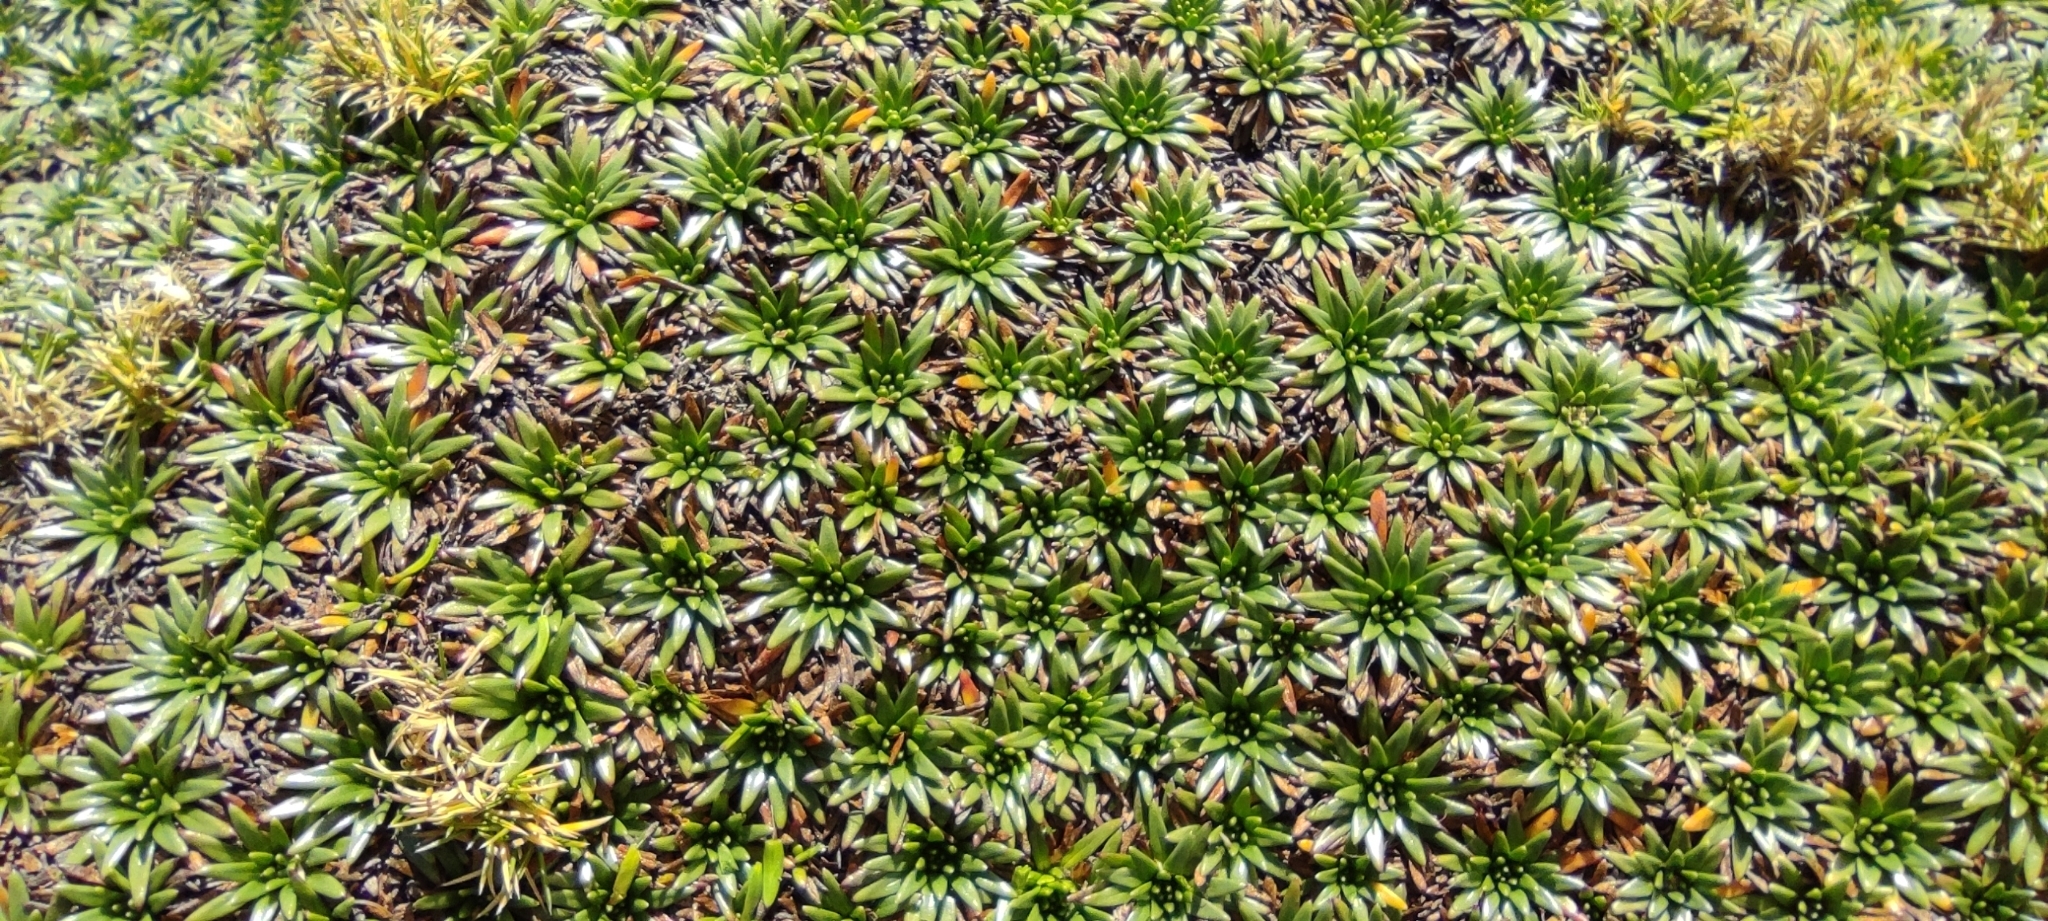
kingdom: Plantae
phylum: Tracheophyta
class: Magnoliopsida
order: Lamiales
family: Plantaginaceae
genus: Plantago
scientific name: Plantago rigida
